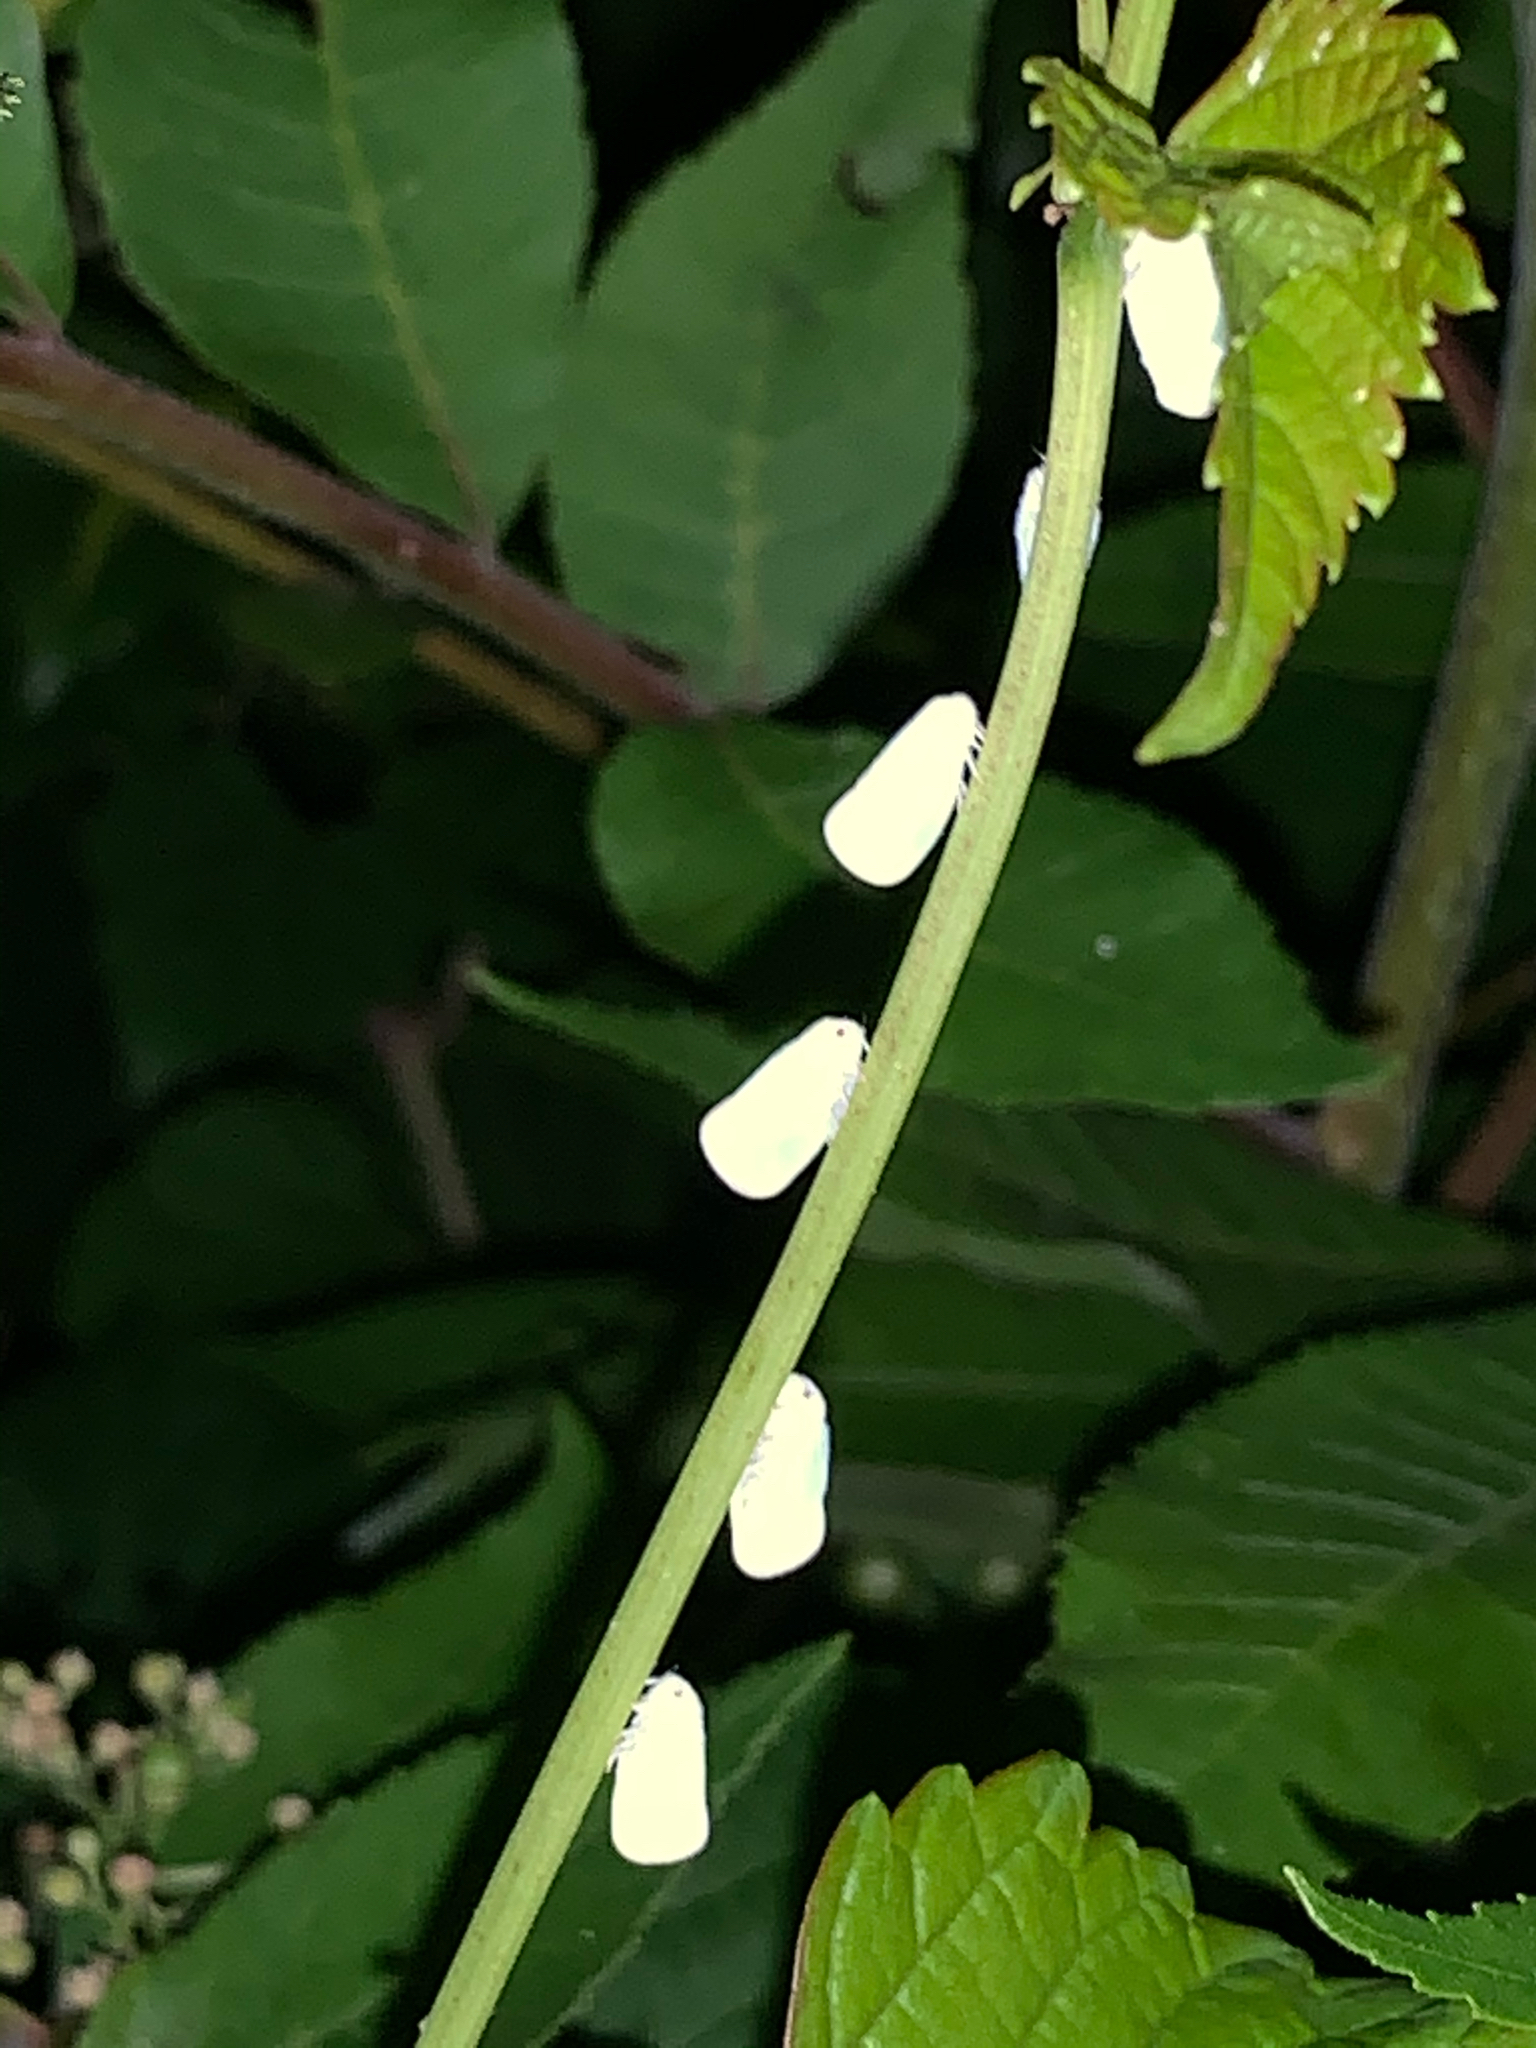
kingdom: Animalia
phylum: Arthropoda
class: Insecta
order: Hemiptera
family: Flatidae
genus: Ormenoides
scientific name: Ormenoides venusta
